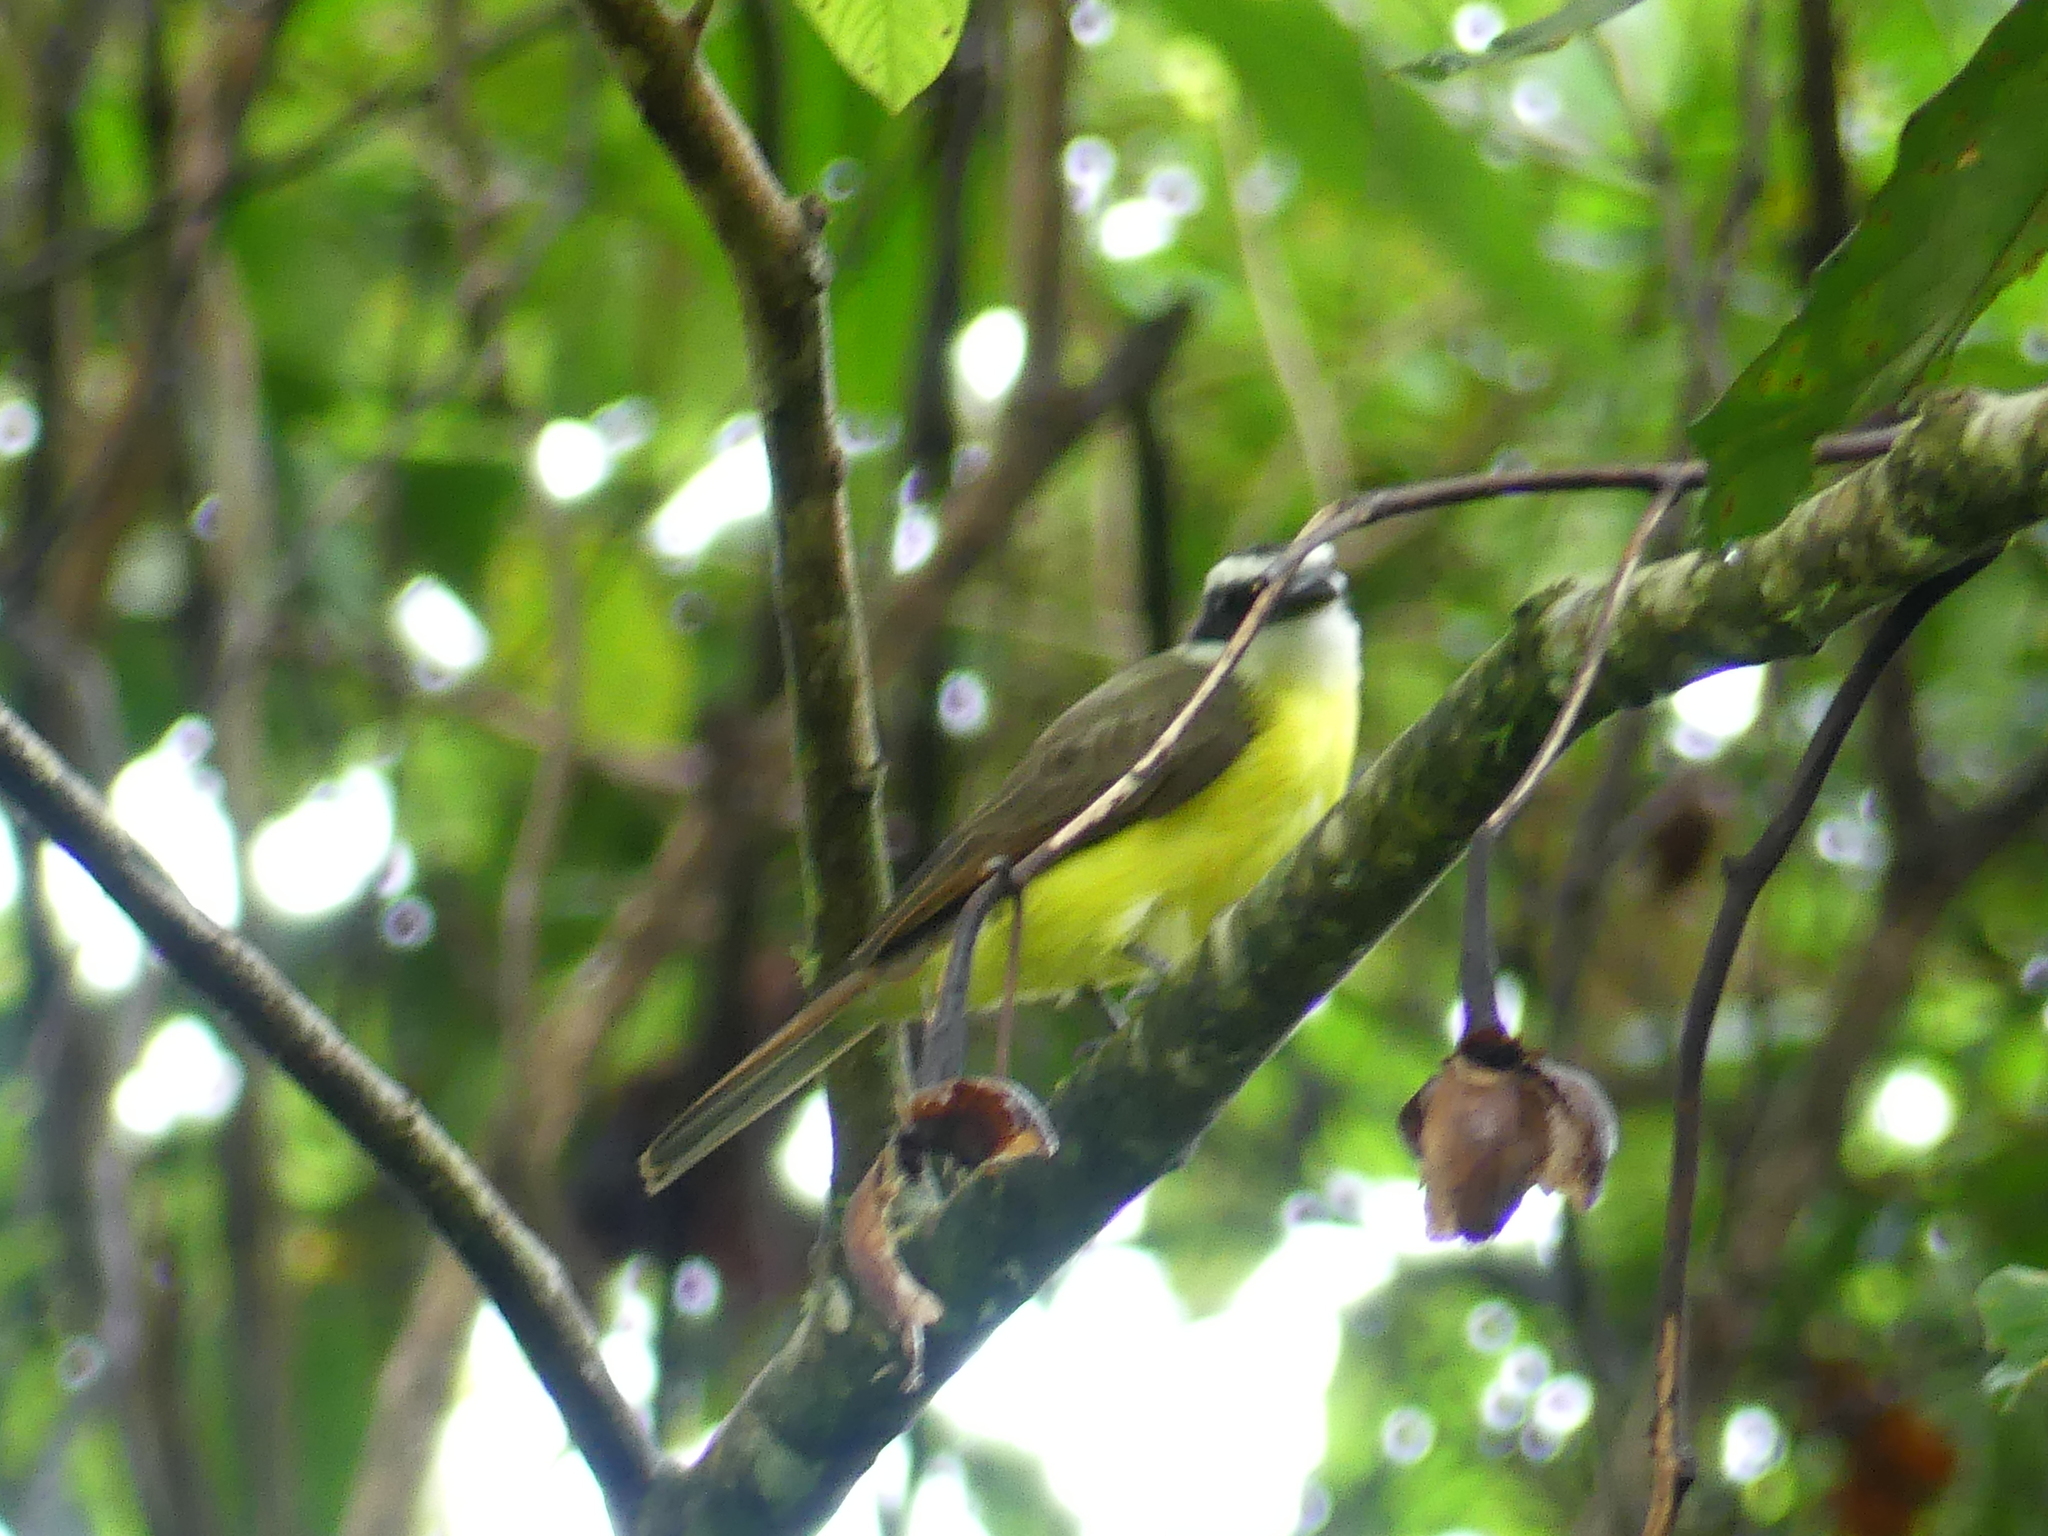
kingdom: Animalia
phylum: Chordata
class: Aves
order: Passeriformes
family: Tyrannidae
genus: Pitangus
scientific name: Pitangus sulphuratus
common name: Great kiskadee
